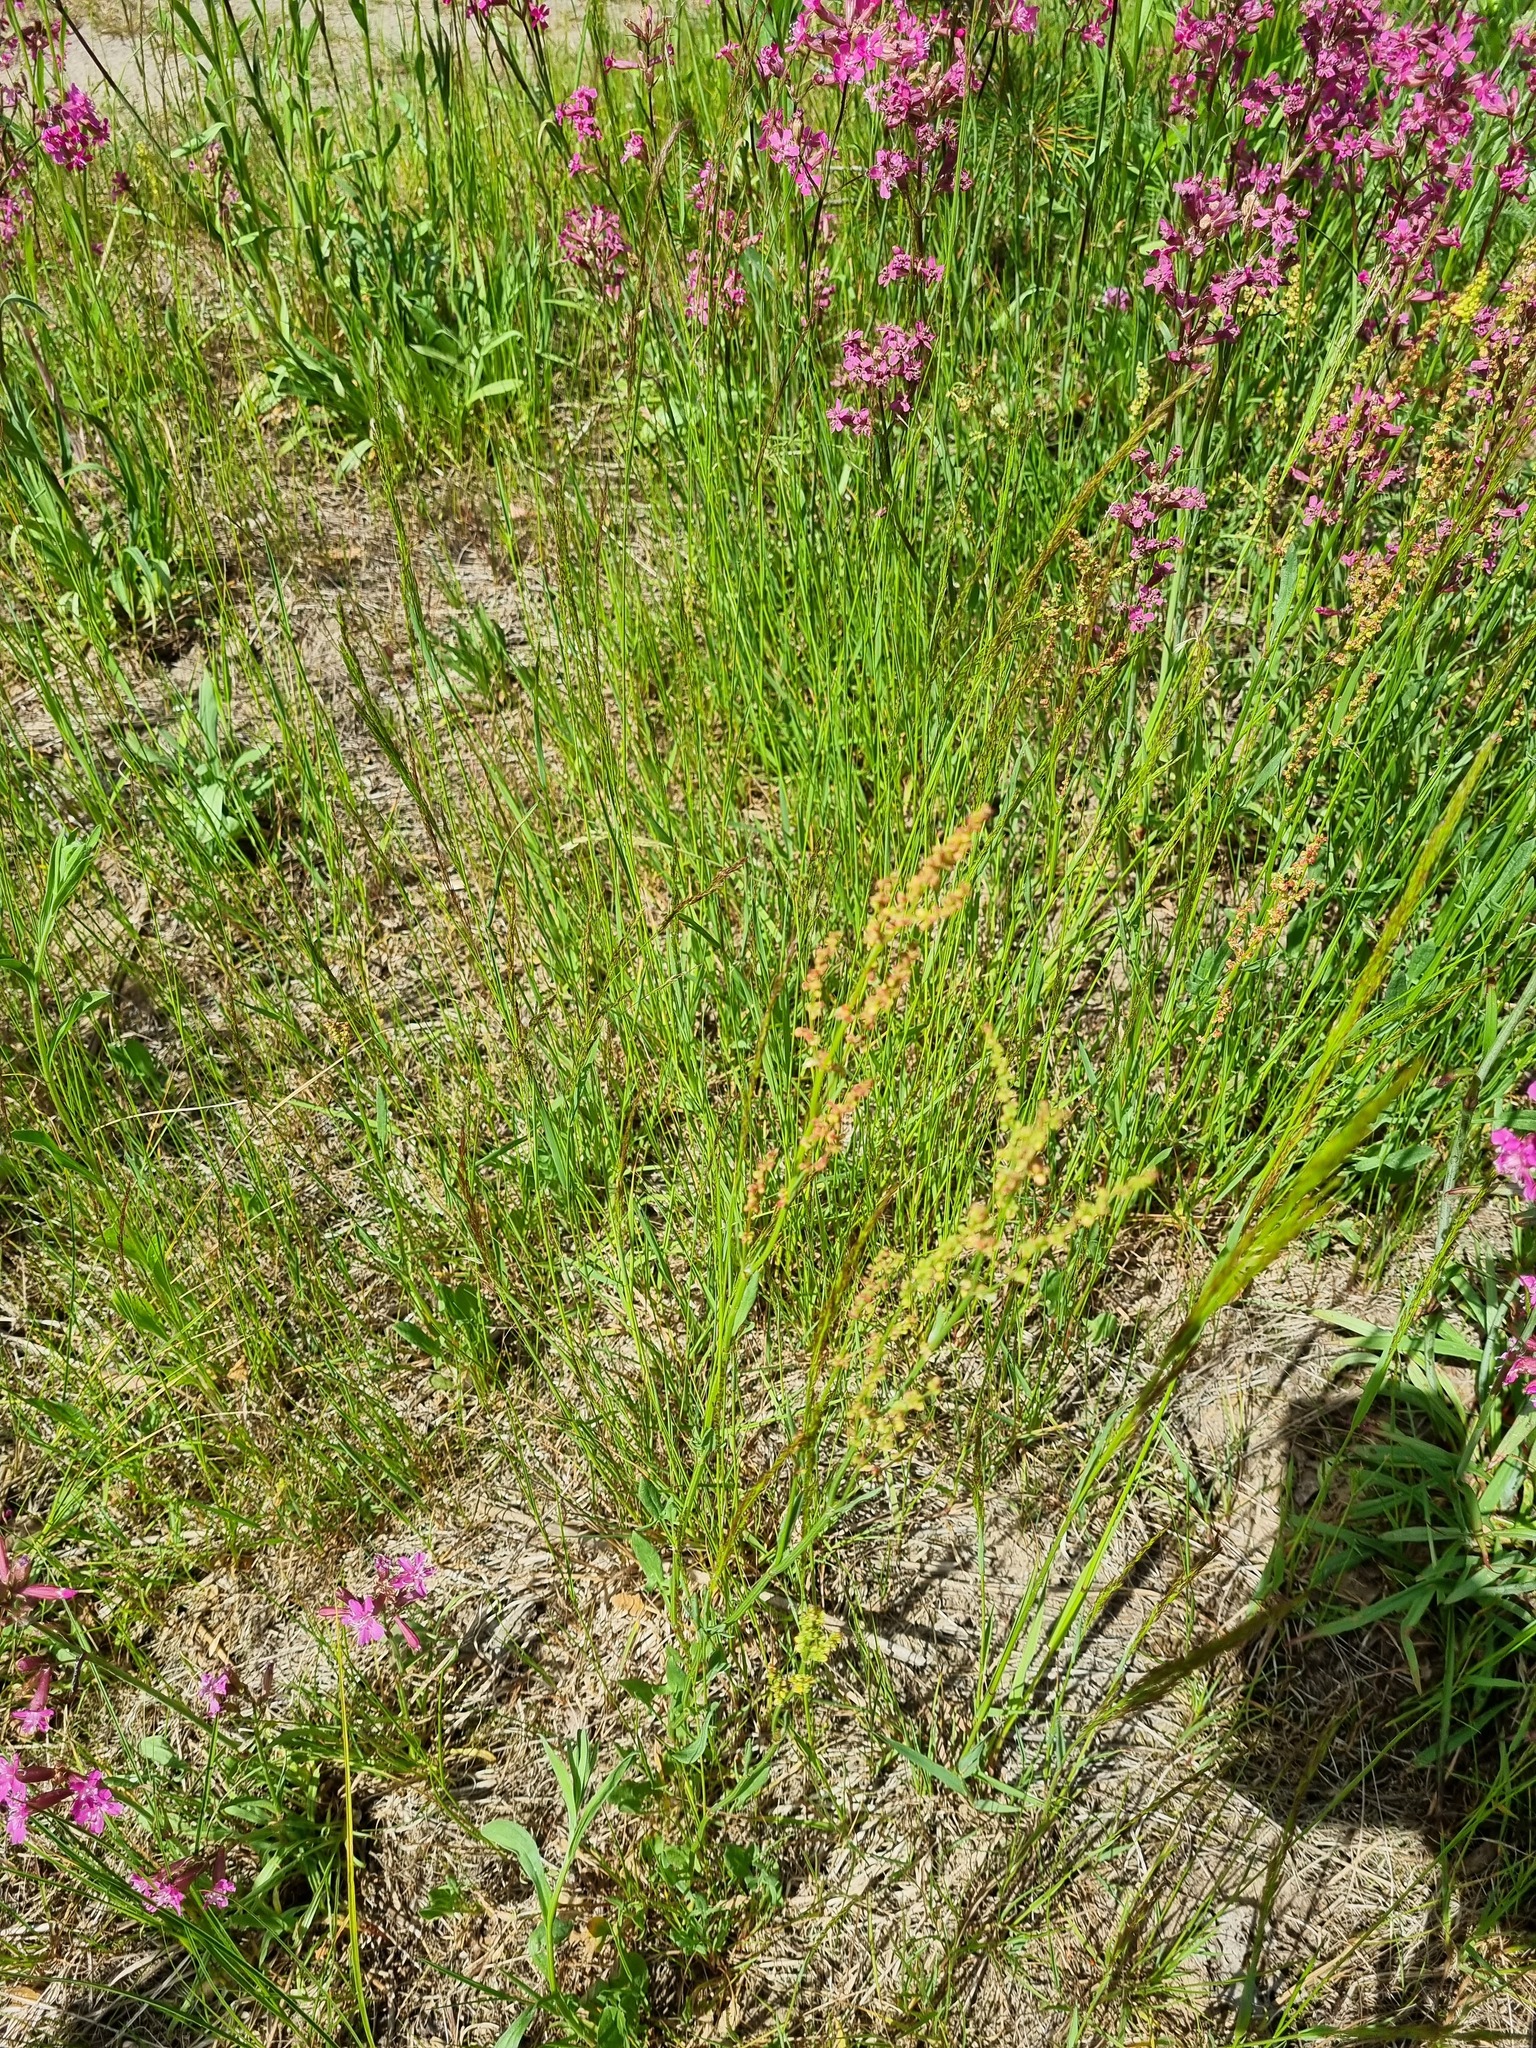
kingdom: Plantae
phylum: Tracheophyta
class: Magnoliopsida
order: Caryophyllales
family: Polygonaceae
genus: Rumex
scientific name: Rumex acetosella
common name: Common sheep sorrel
